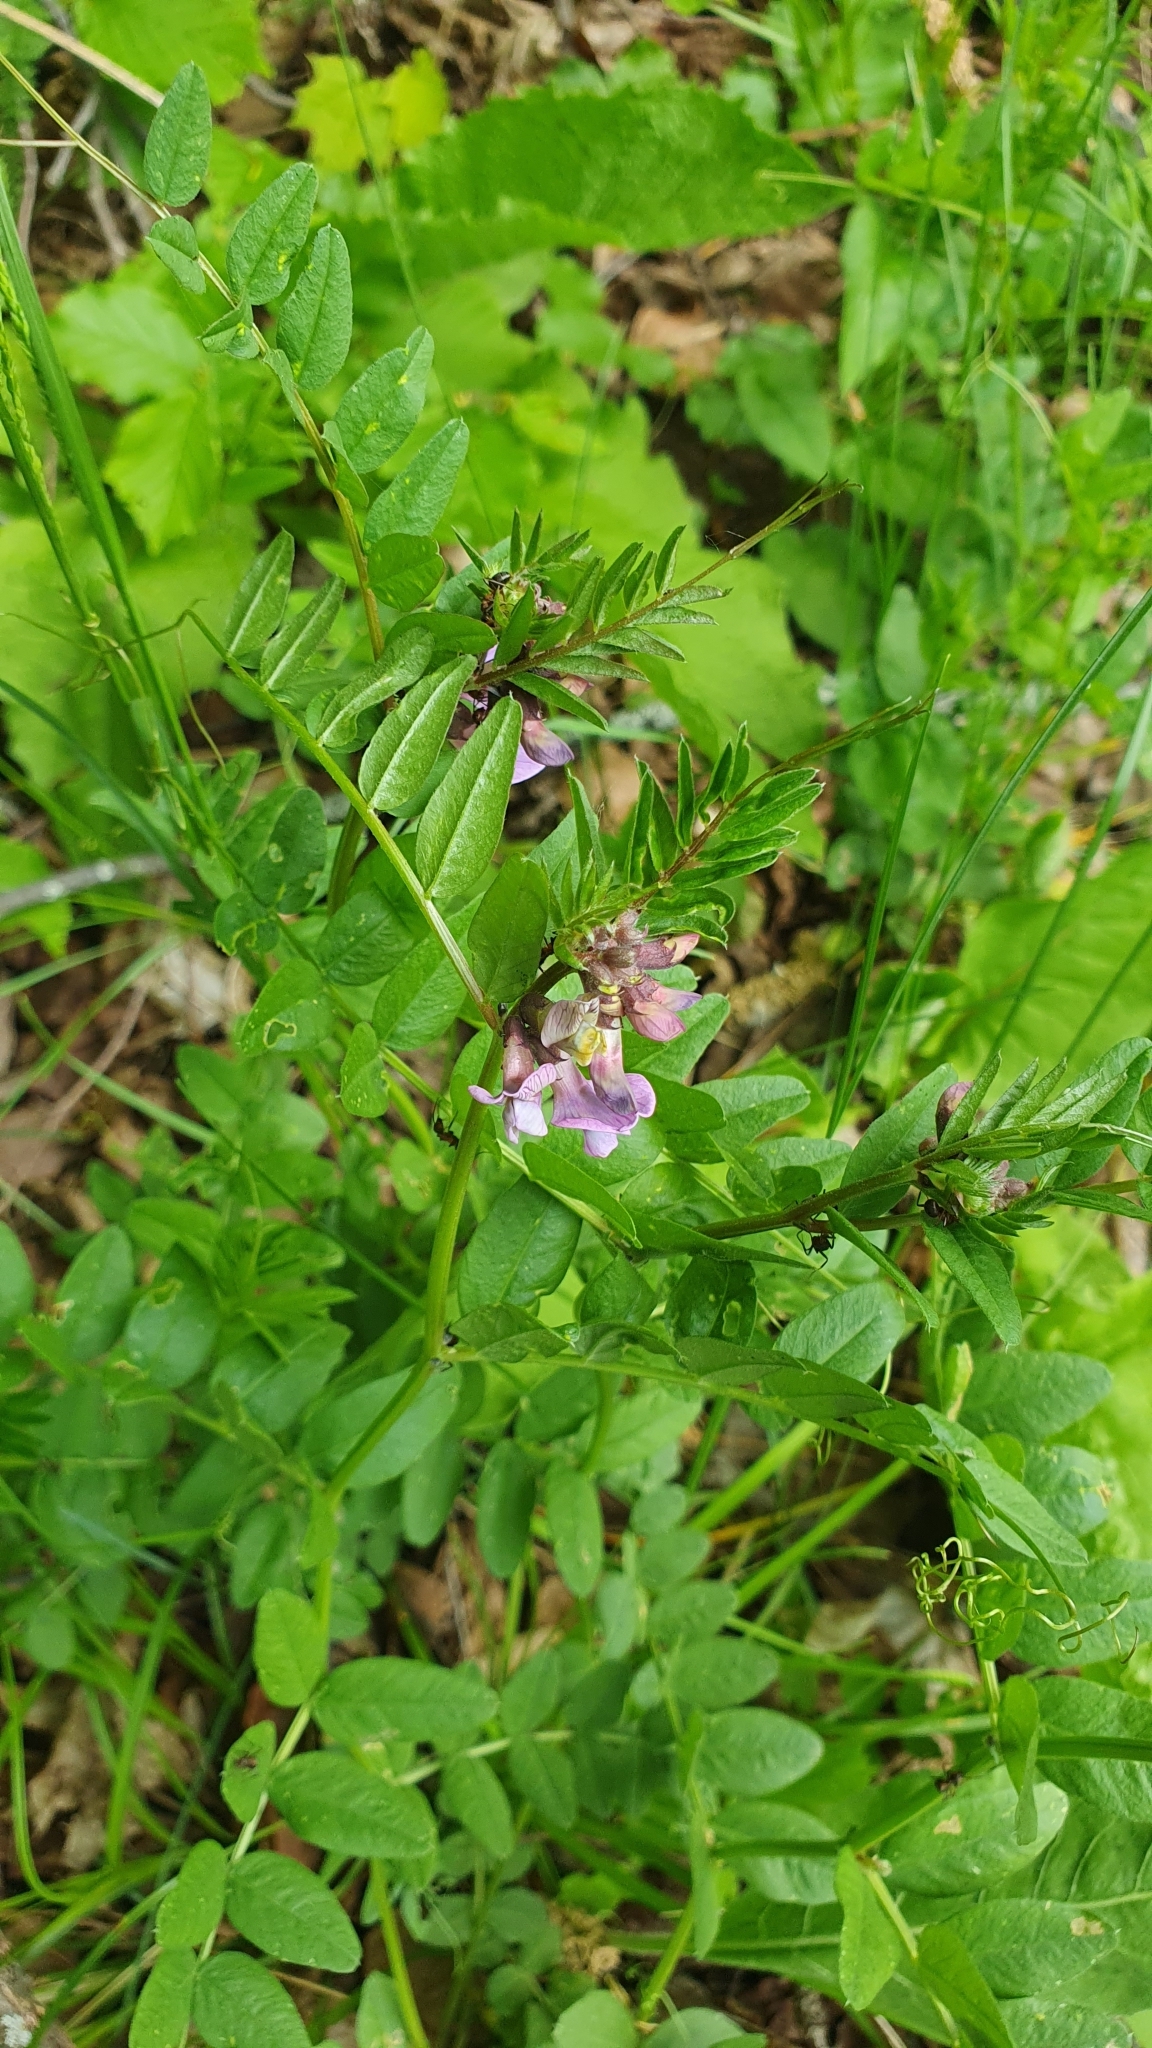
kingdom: Plantae
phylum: Tracheophyta
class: Magnoliopsida
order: Fabales
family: Fabaceae
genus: Vicia
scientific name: Vicia sepium
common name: Bush vetch
